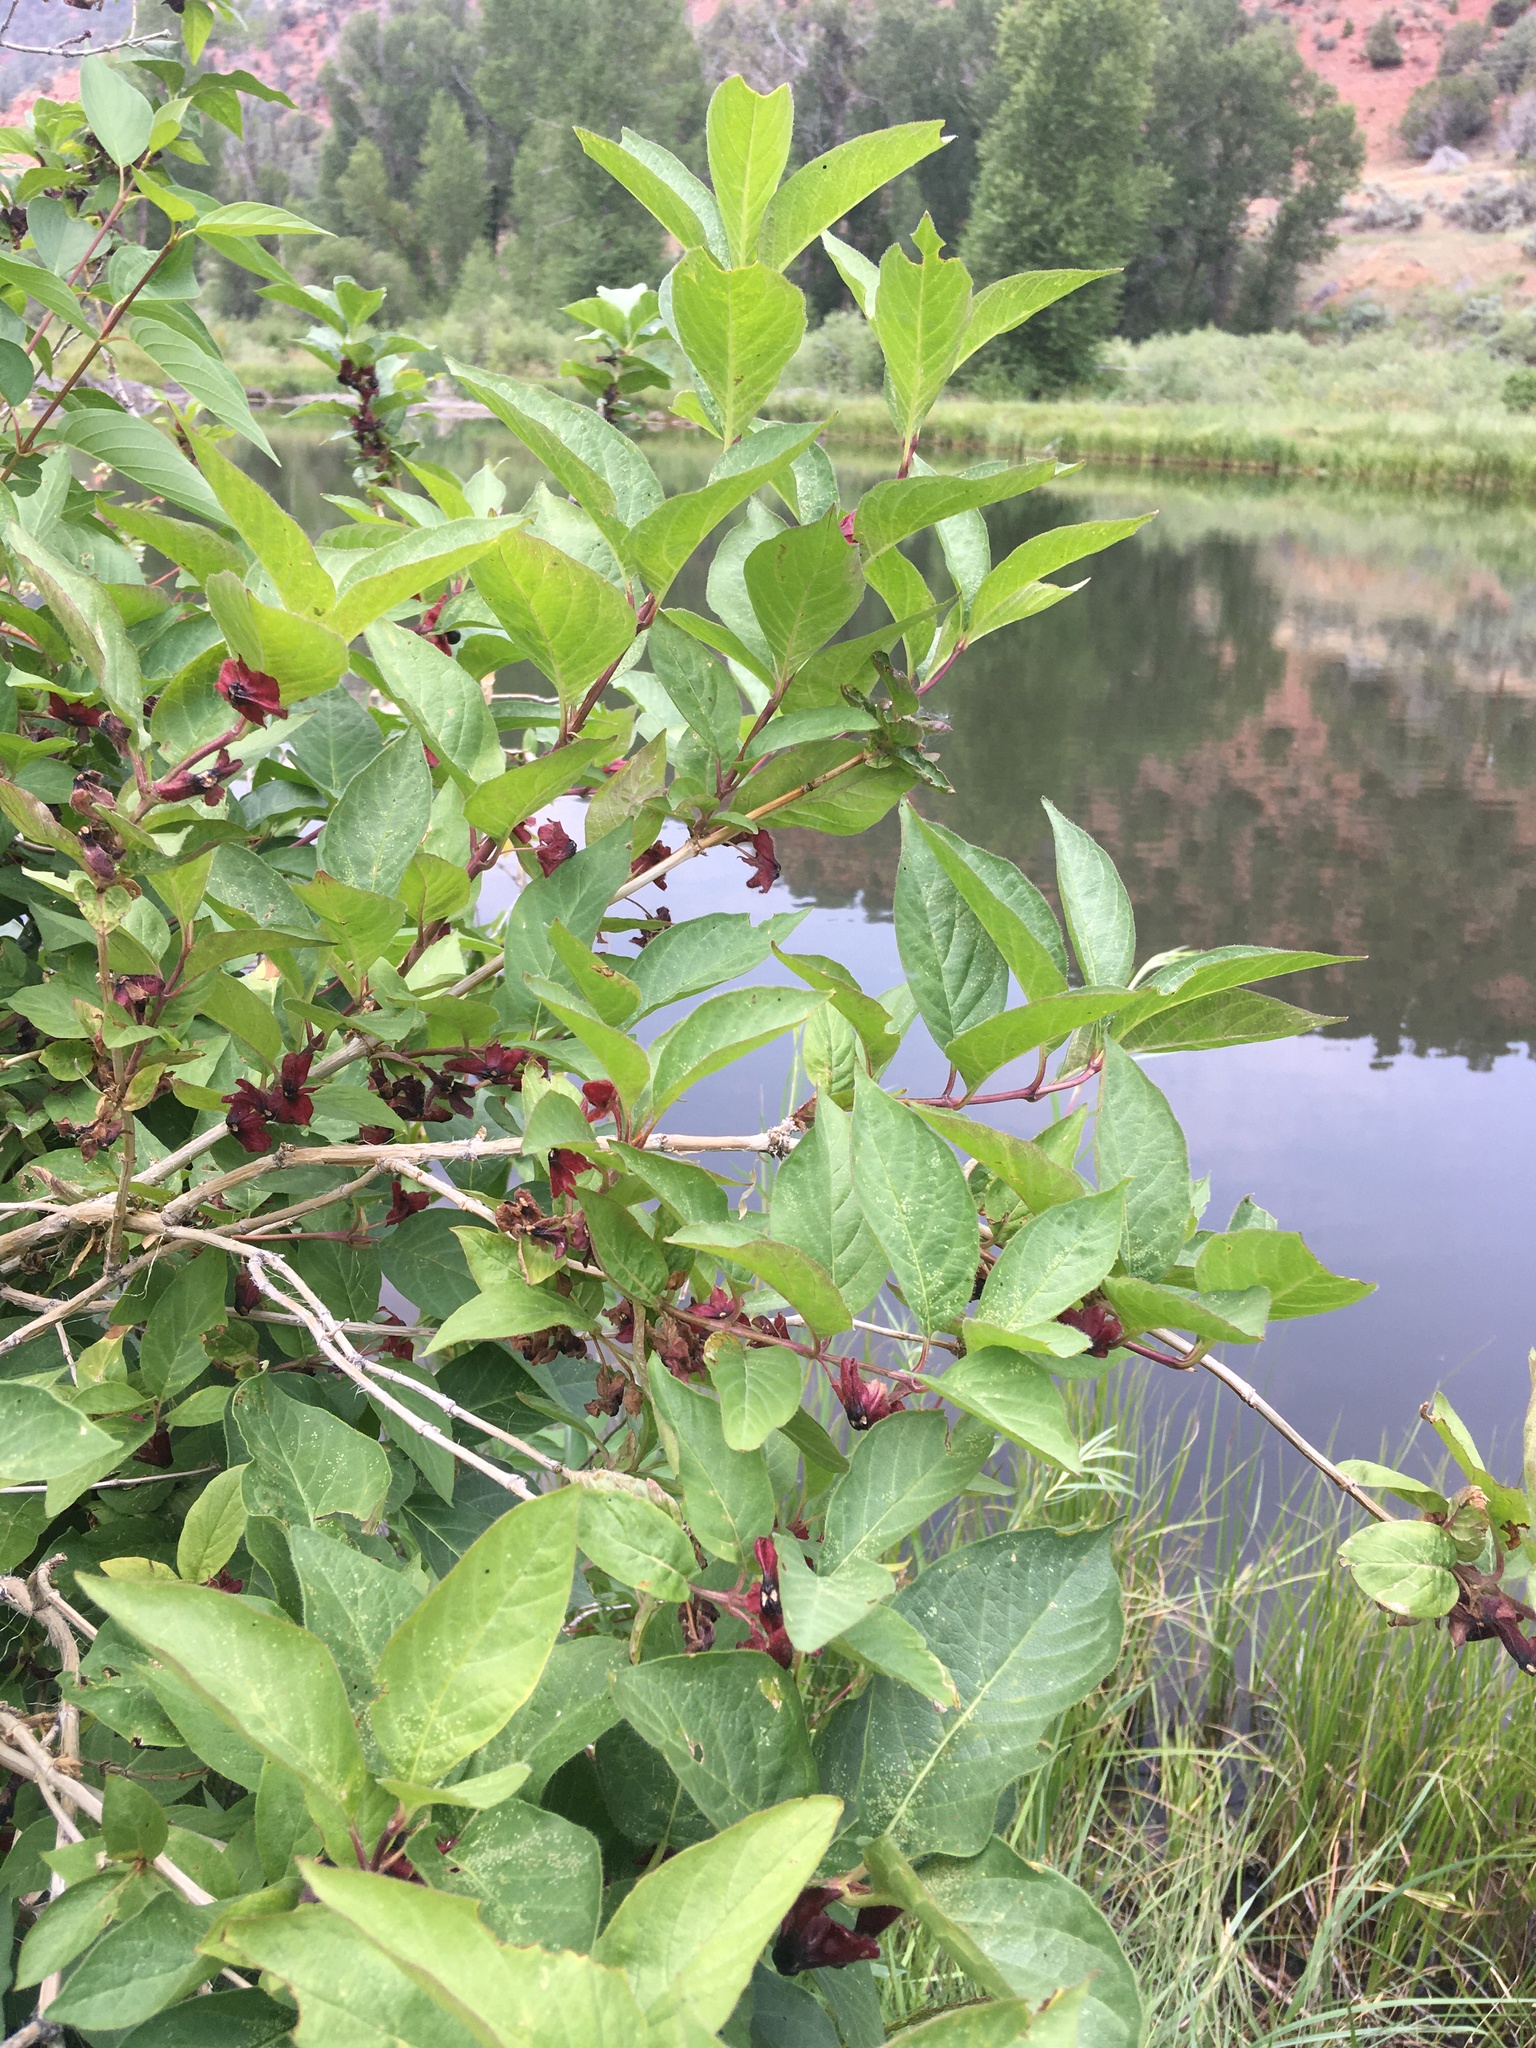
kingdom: Plantae
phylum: Tracheophyta
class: Magnoliopsida
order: Dipsacales
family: Caprifoliaceae
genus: Lonicera
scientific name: Lonicera involucrata
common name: Californian honeysuckle
